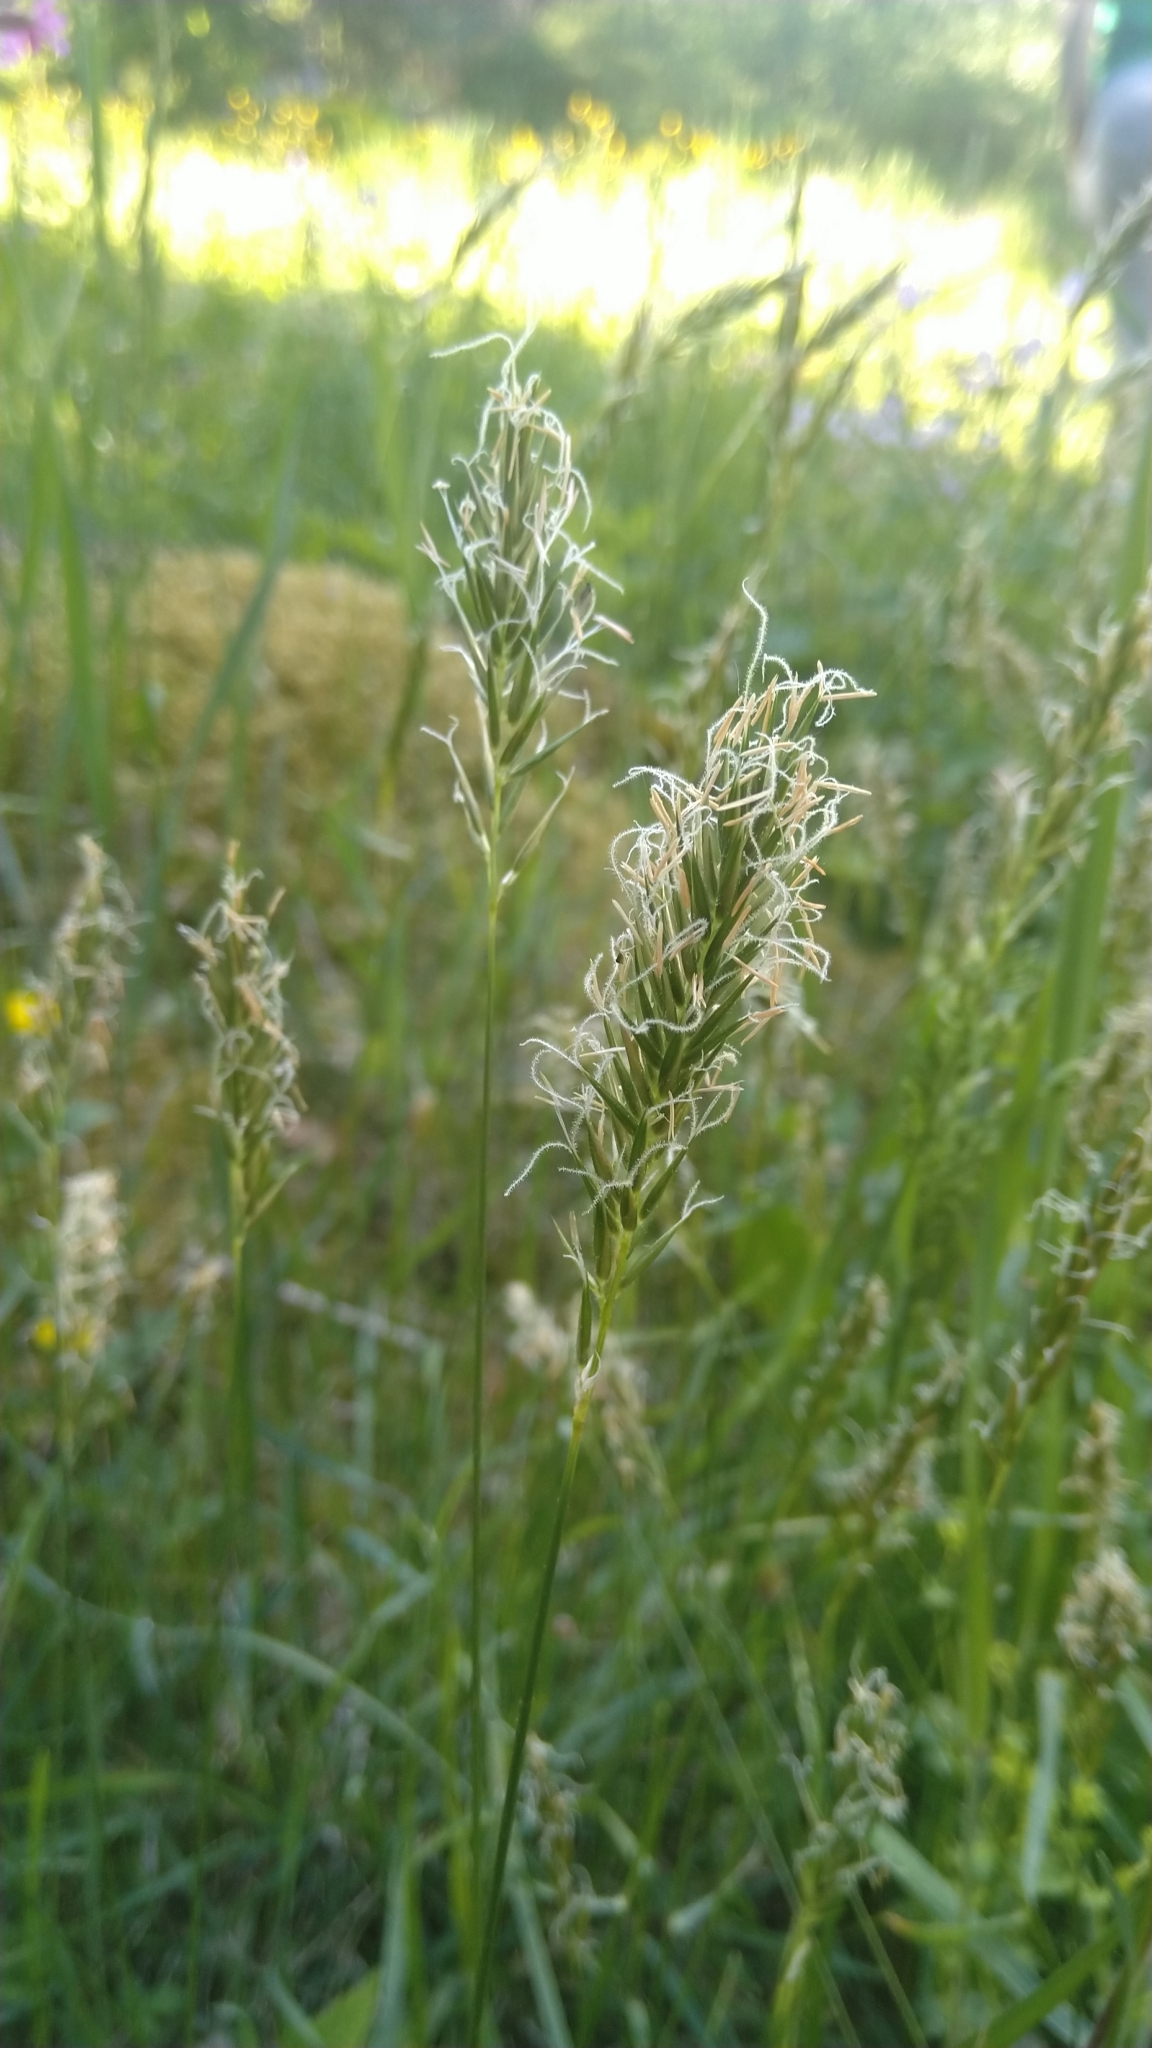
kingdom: Plantae
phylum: Tracheophyta
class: Liliopsida
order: Poales
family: Poaceae
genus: Anthoxanthum
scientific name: Anthoxanthum odoratum
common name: Sweet vernalgrass
